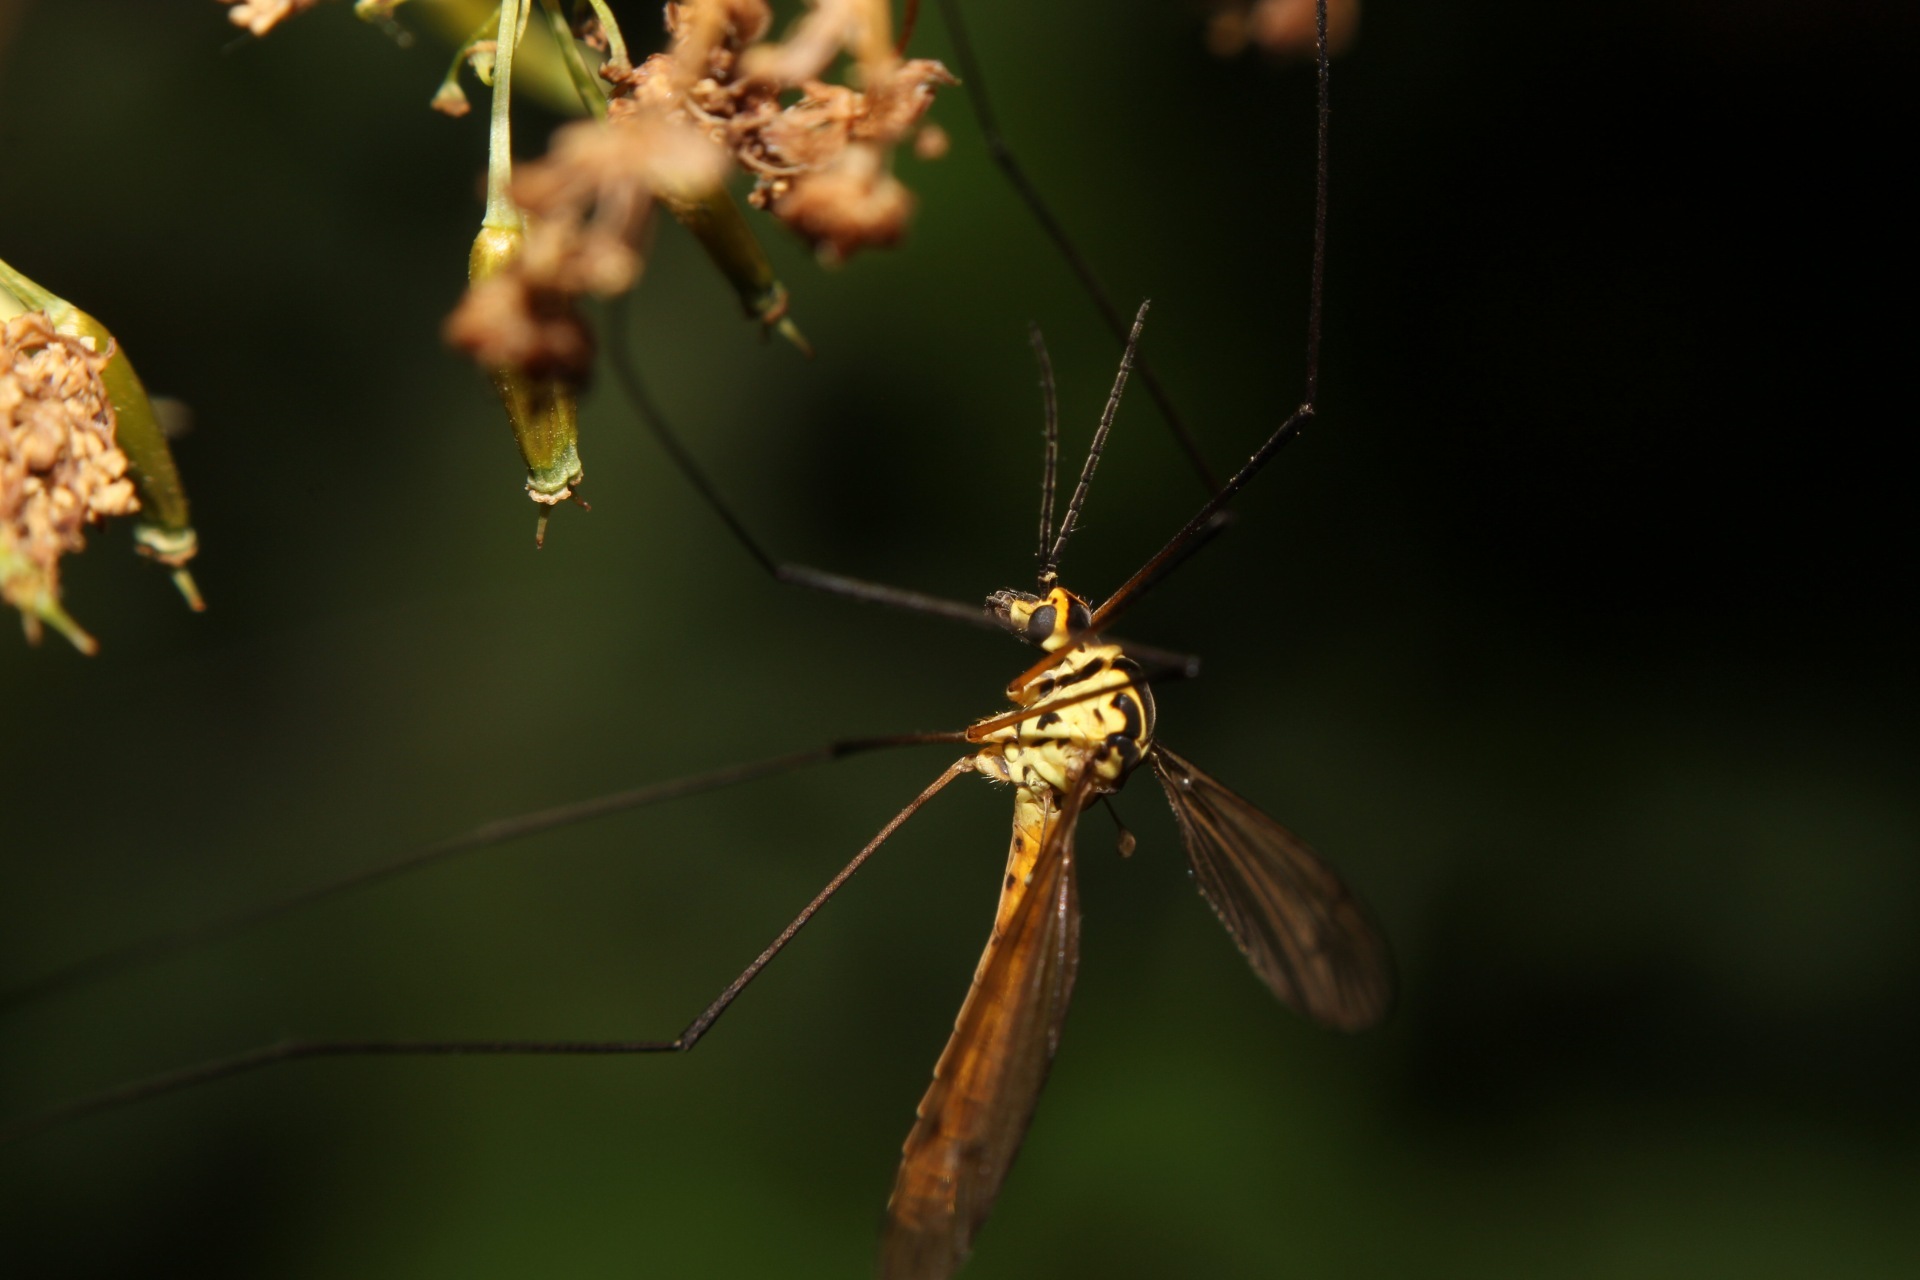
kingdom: Animalia
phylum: Arthropoda
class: Insecta
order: Diptera
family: Tipulidae
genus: Nephrotoma
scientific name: Nephrotoma flavescens
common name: Tiger cranefly
